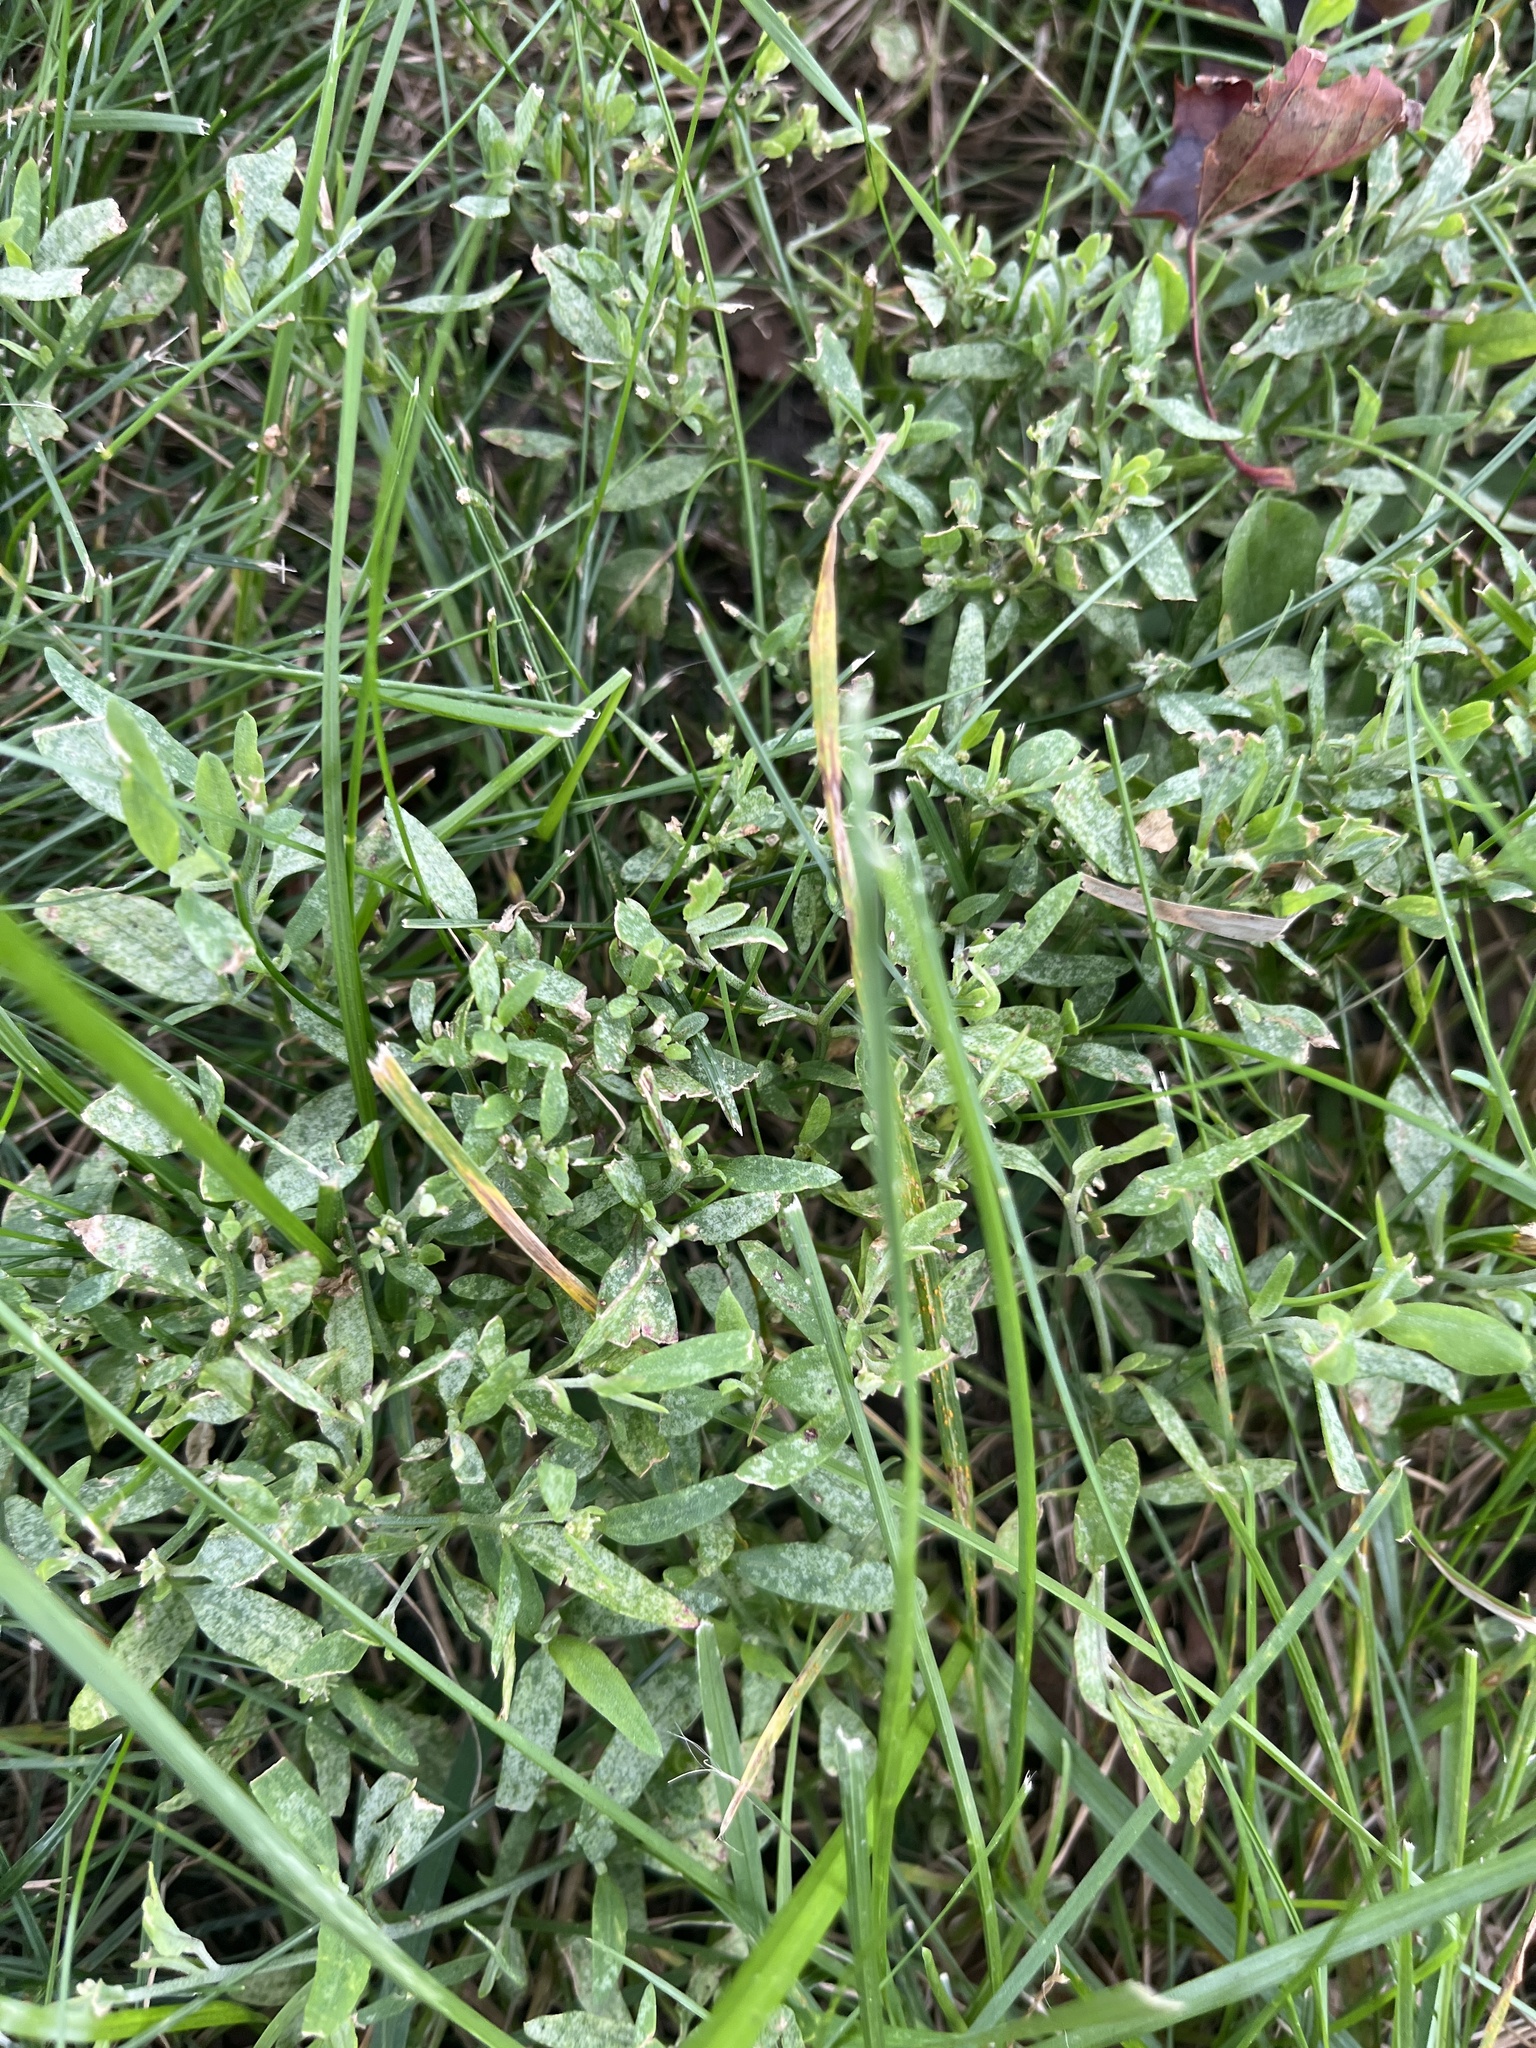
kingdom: Plantae
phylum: Tracheophyta
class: Magnoliopsida
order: Caryophyllales
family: Polygonaceae
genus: Polygonum
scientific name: Polygonum aviculare
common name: Prostrate knotweed
